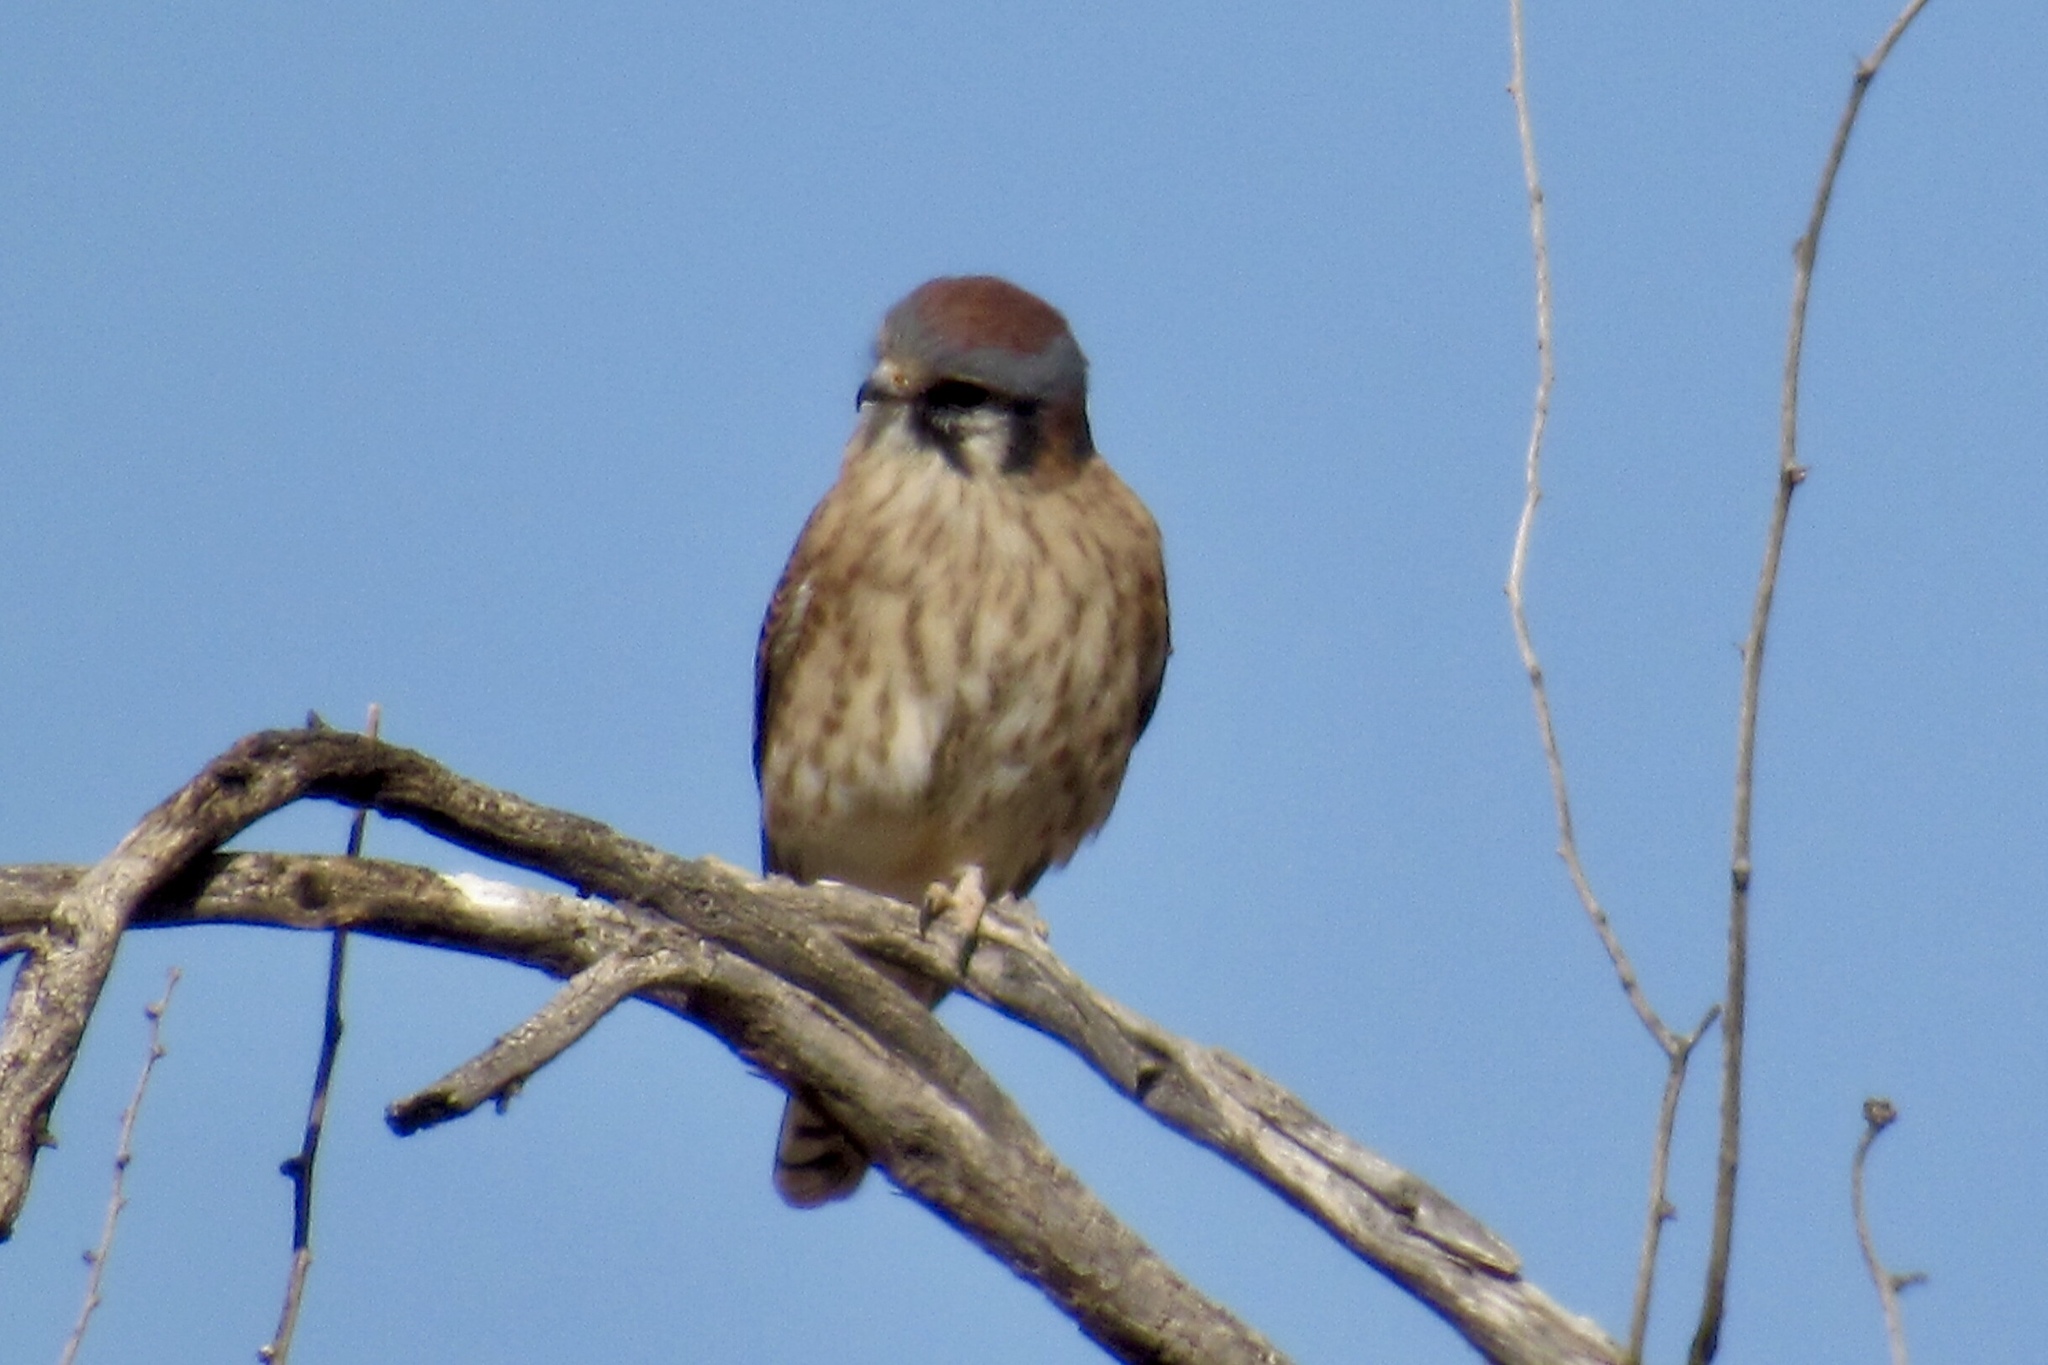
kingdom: Animalia
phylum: Chordata
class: Aves
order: Falconiformes
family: Falconidae
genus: Falco
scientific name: Falco sparverius
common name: American kestrel
